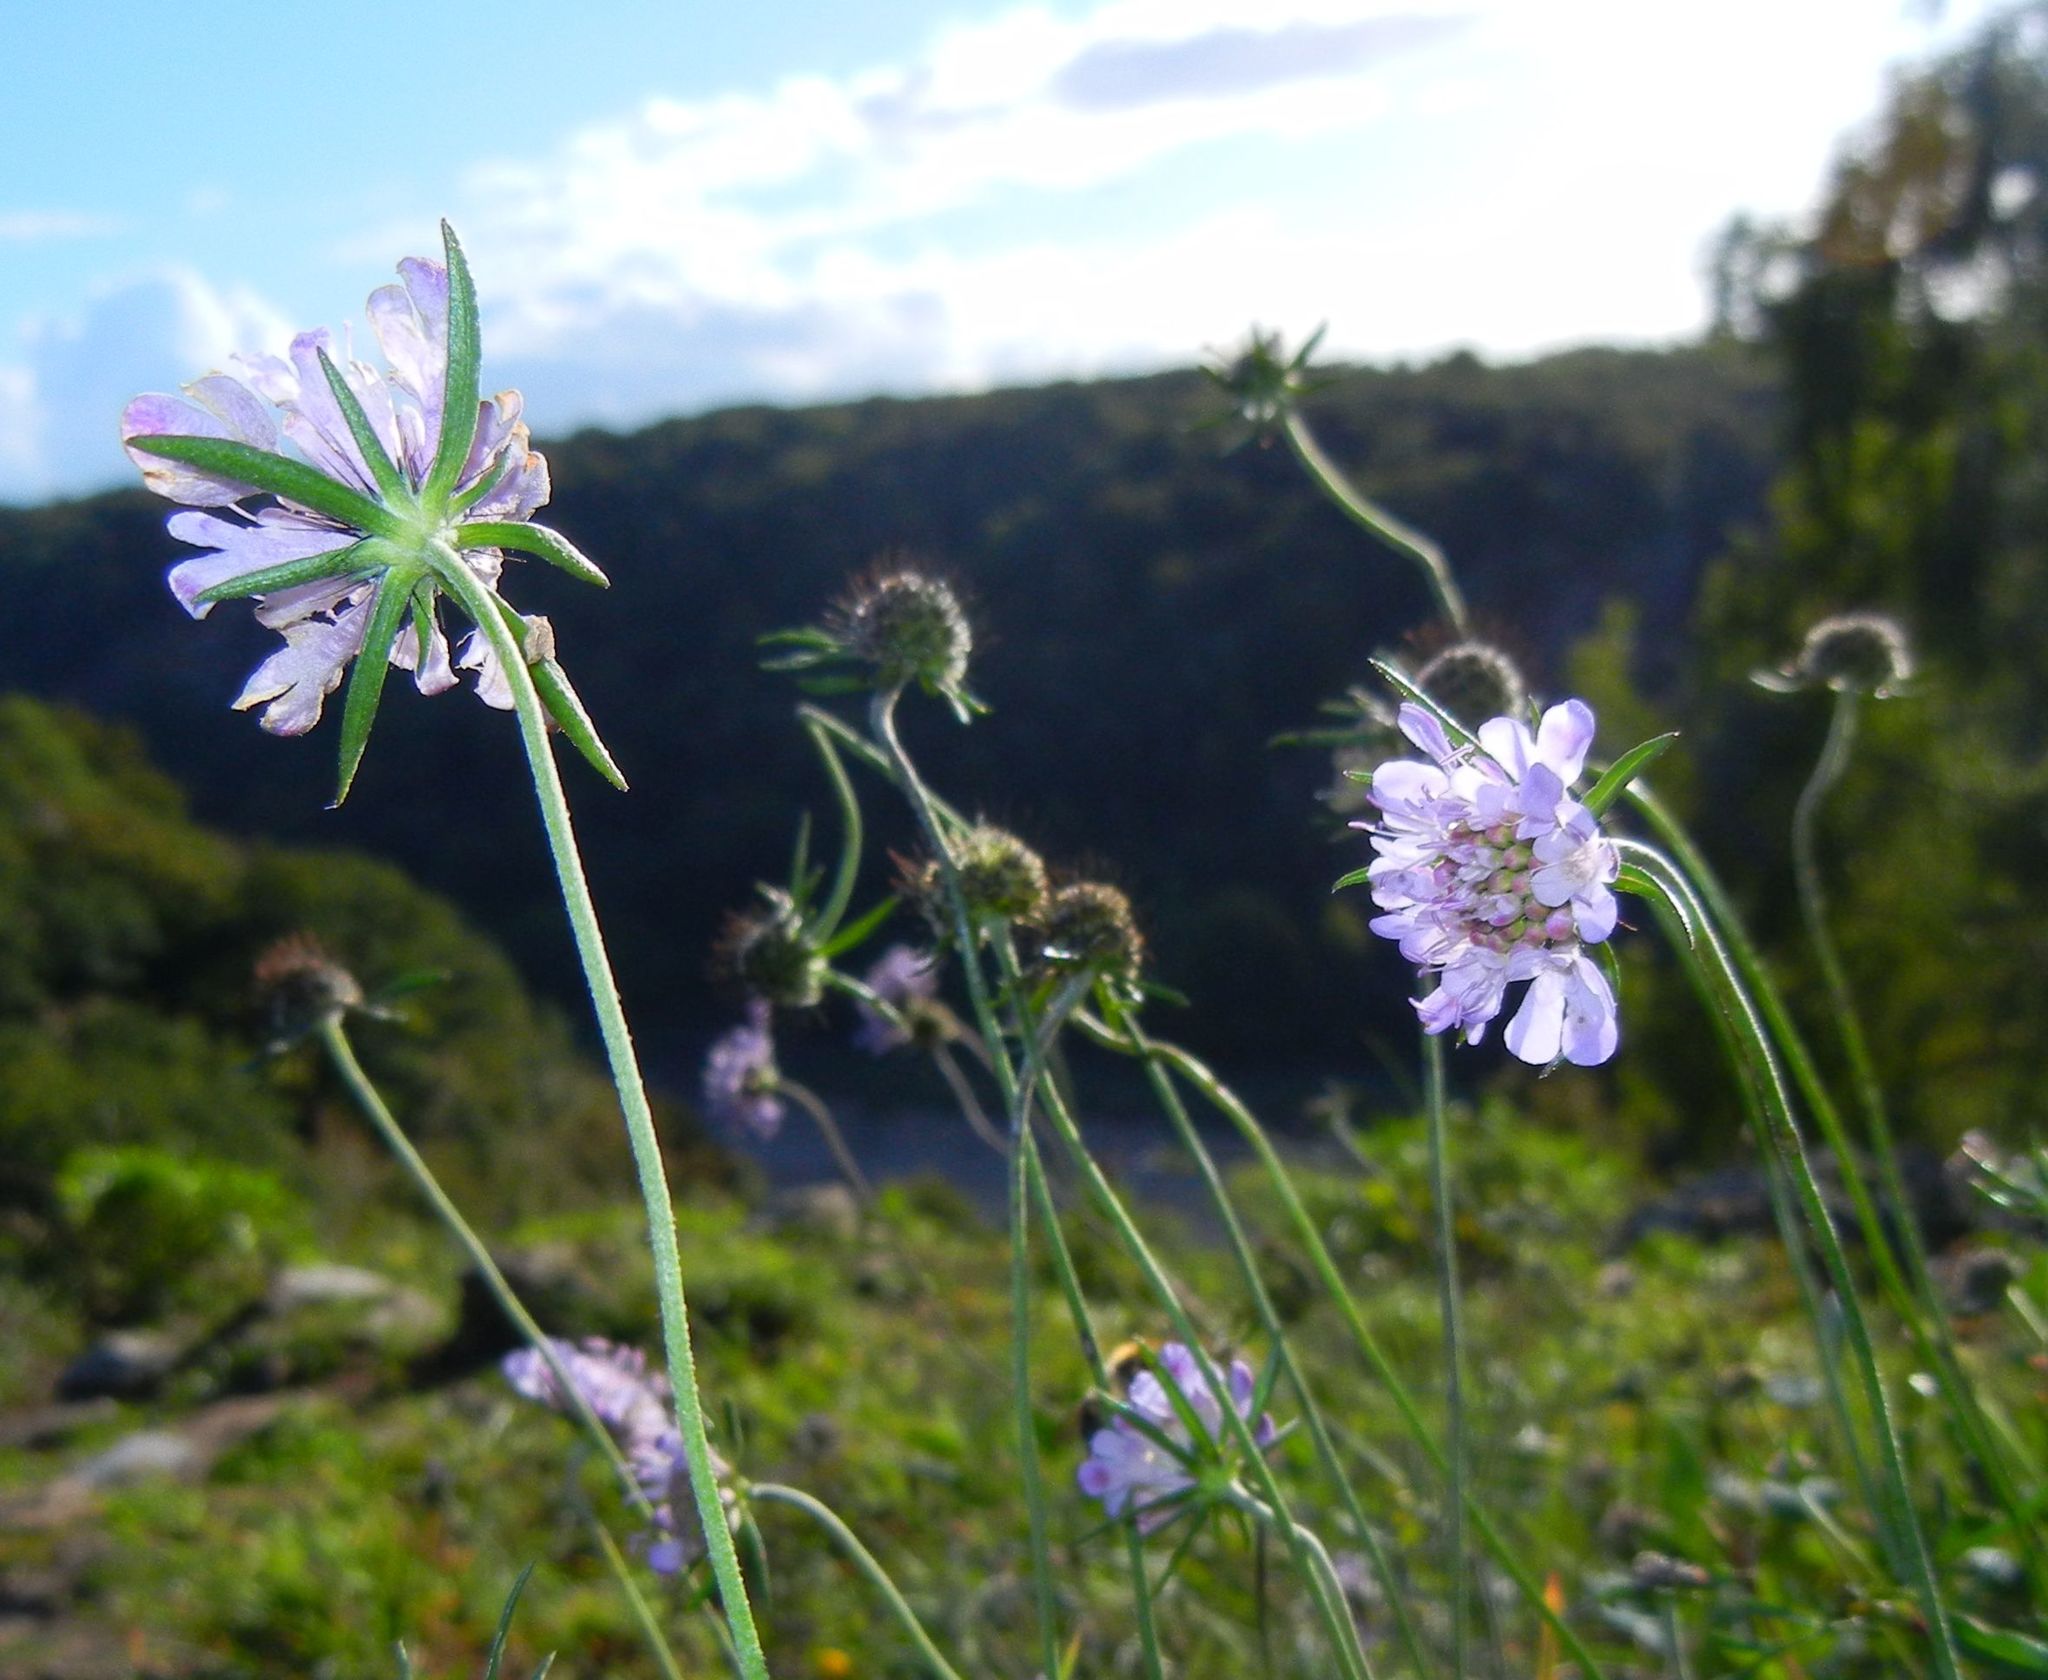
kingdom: Plantae
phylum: Tracheophyta
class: Magnoliopsida
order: Dipsacales
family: Caprifoliaceae
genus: Scabiosa
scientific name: Scabiosa columbaria
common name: Small scabious
